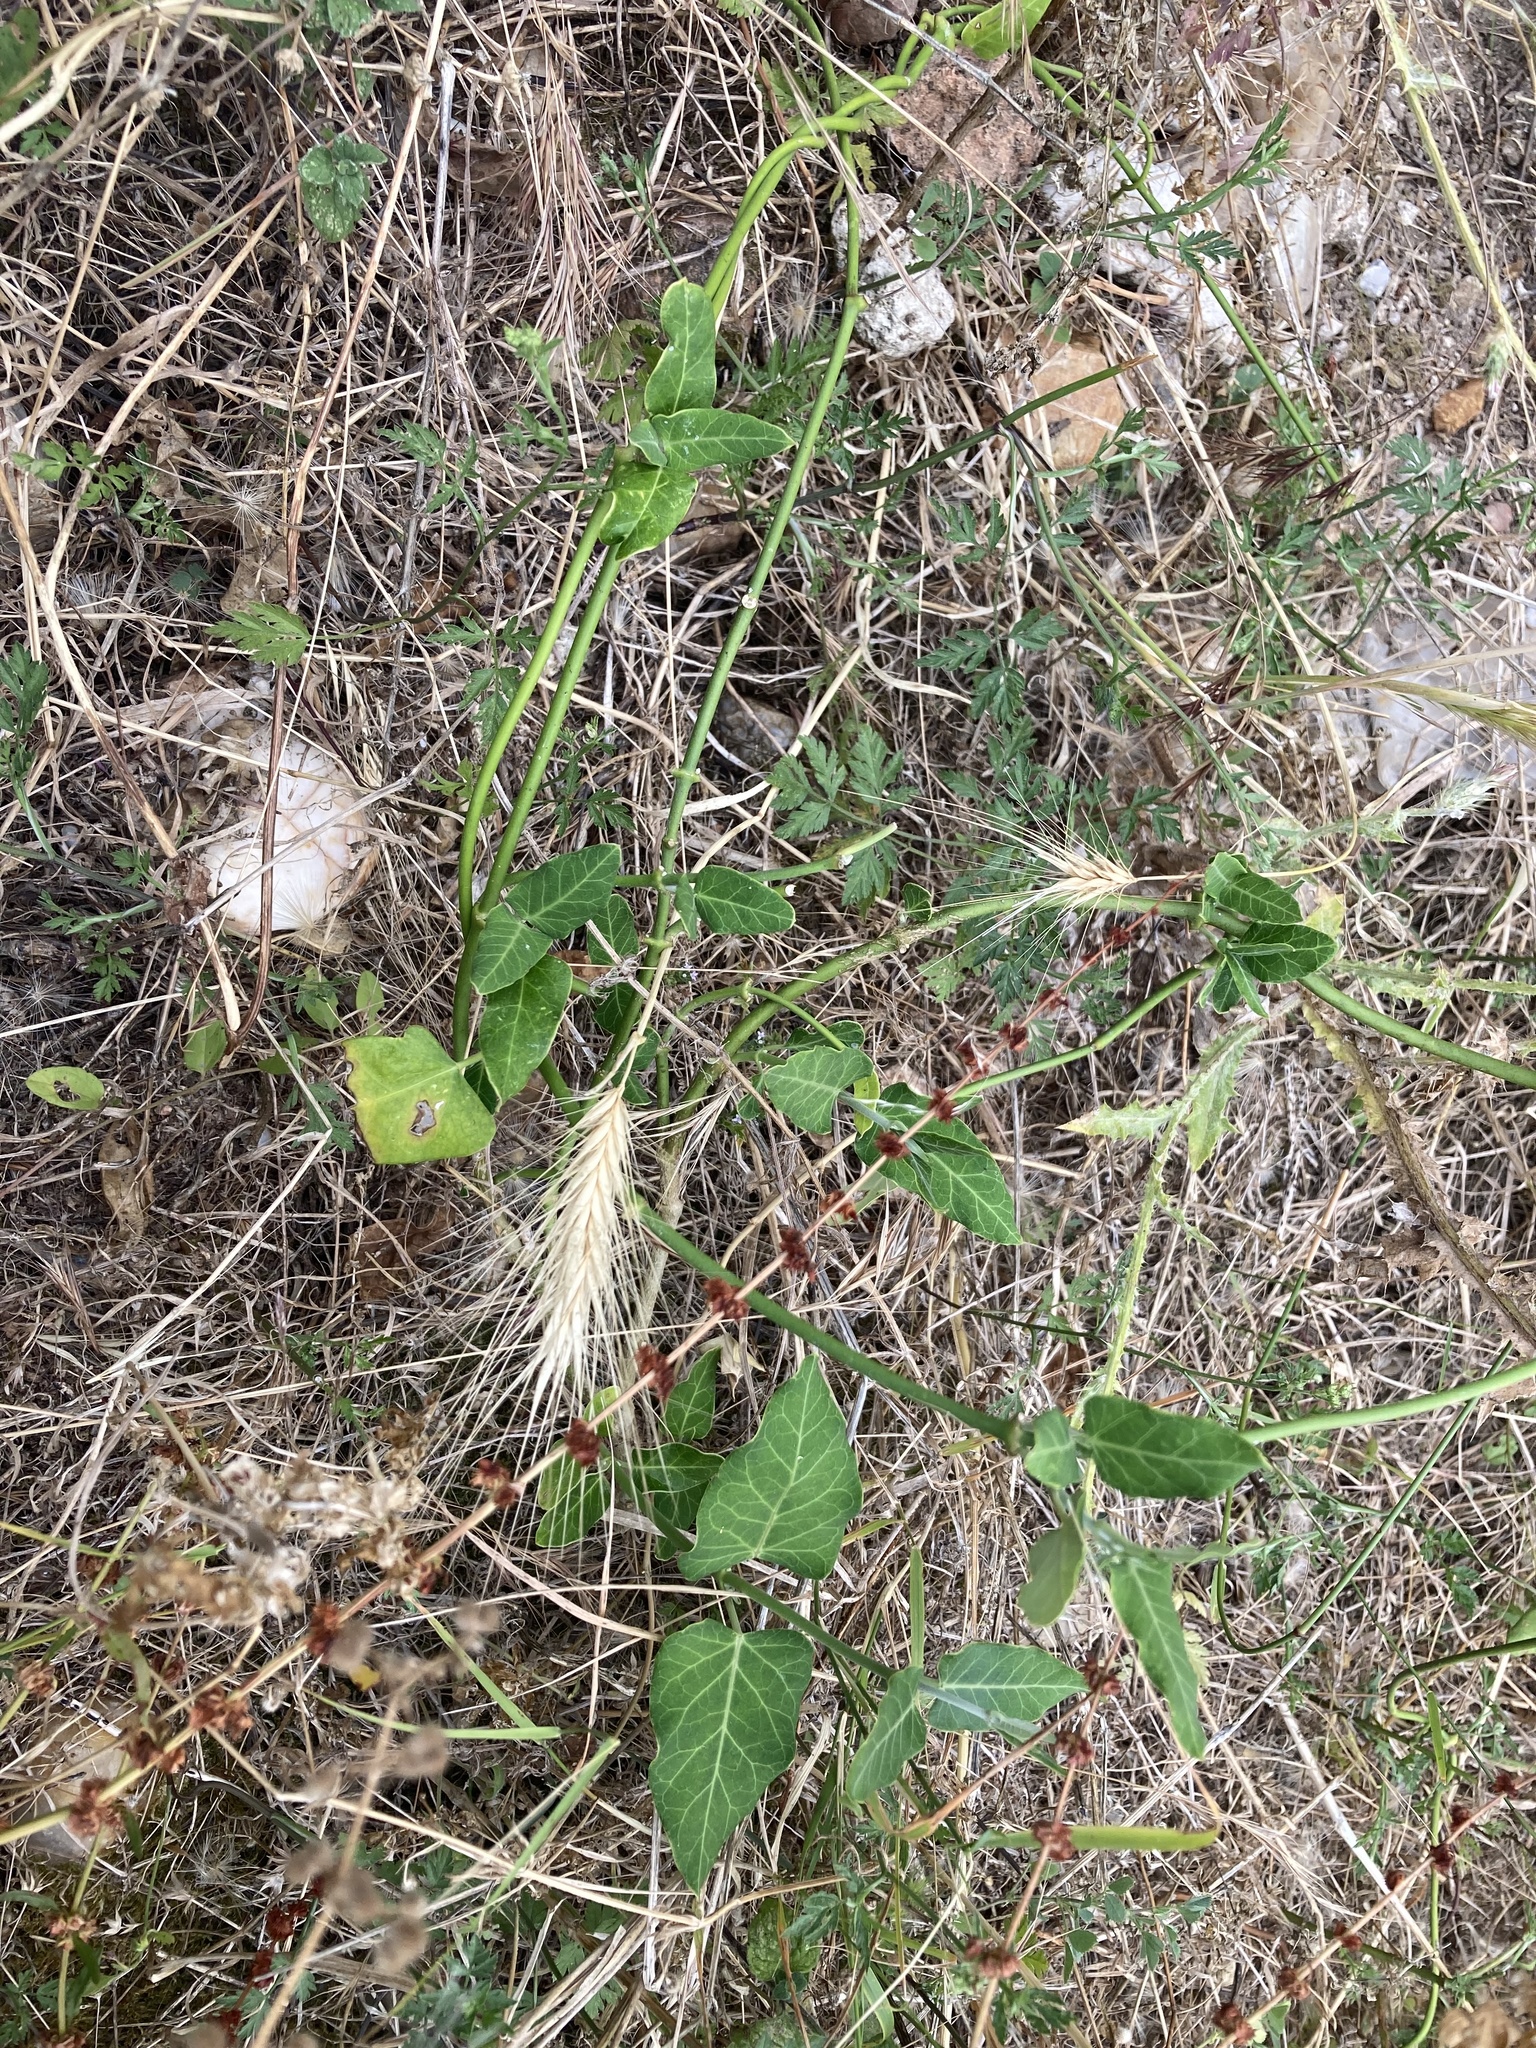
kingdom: Plantae
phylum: Tracheophyta
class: Magnoliopsida
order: Gentianales
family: Apocynaceae
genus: Araujia
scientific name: Araujia sericifera
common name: White bladderflower
